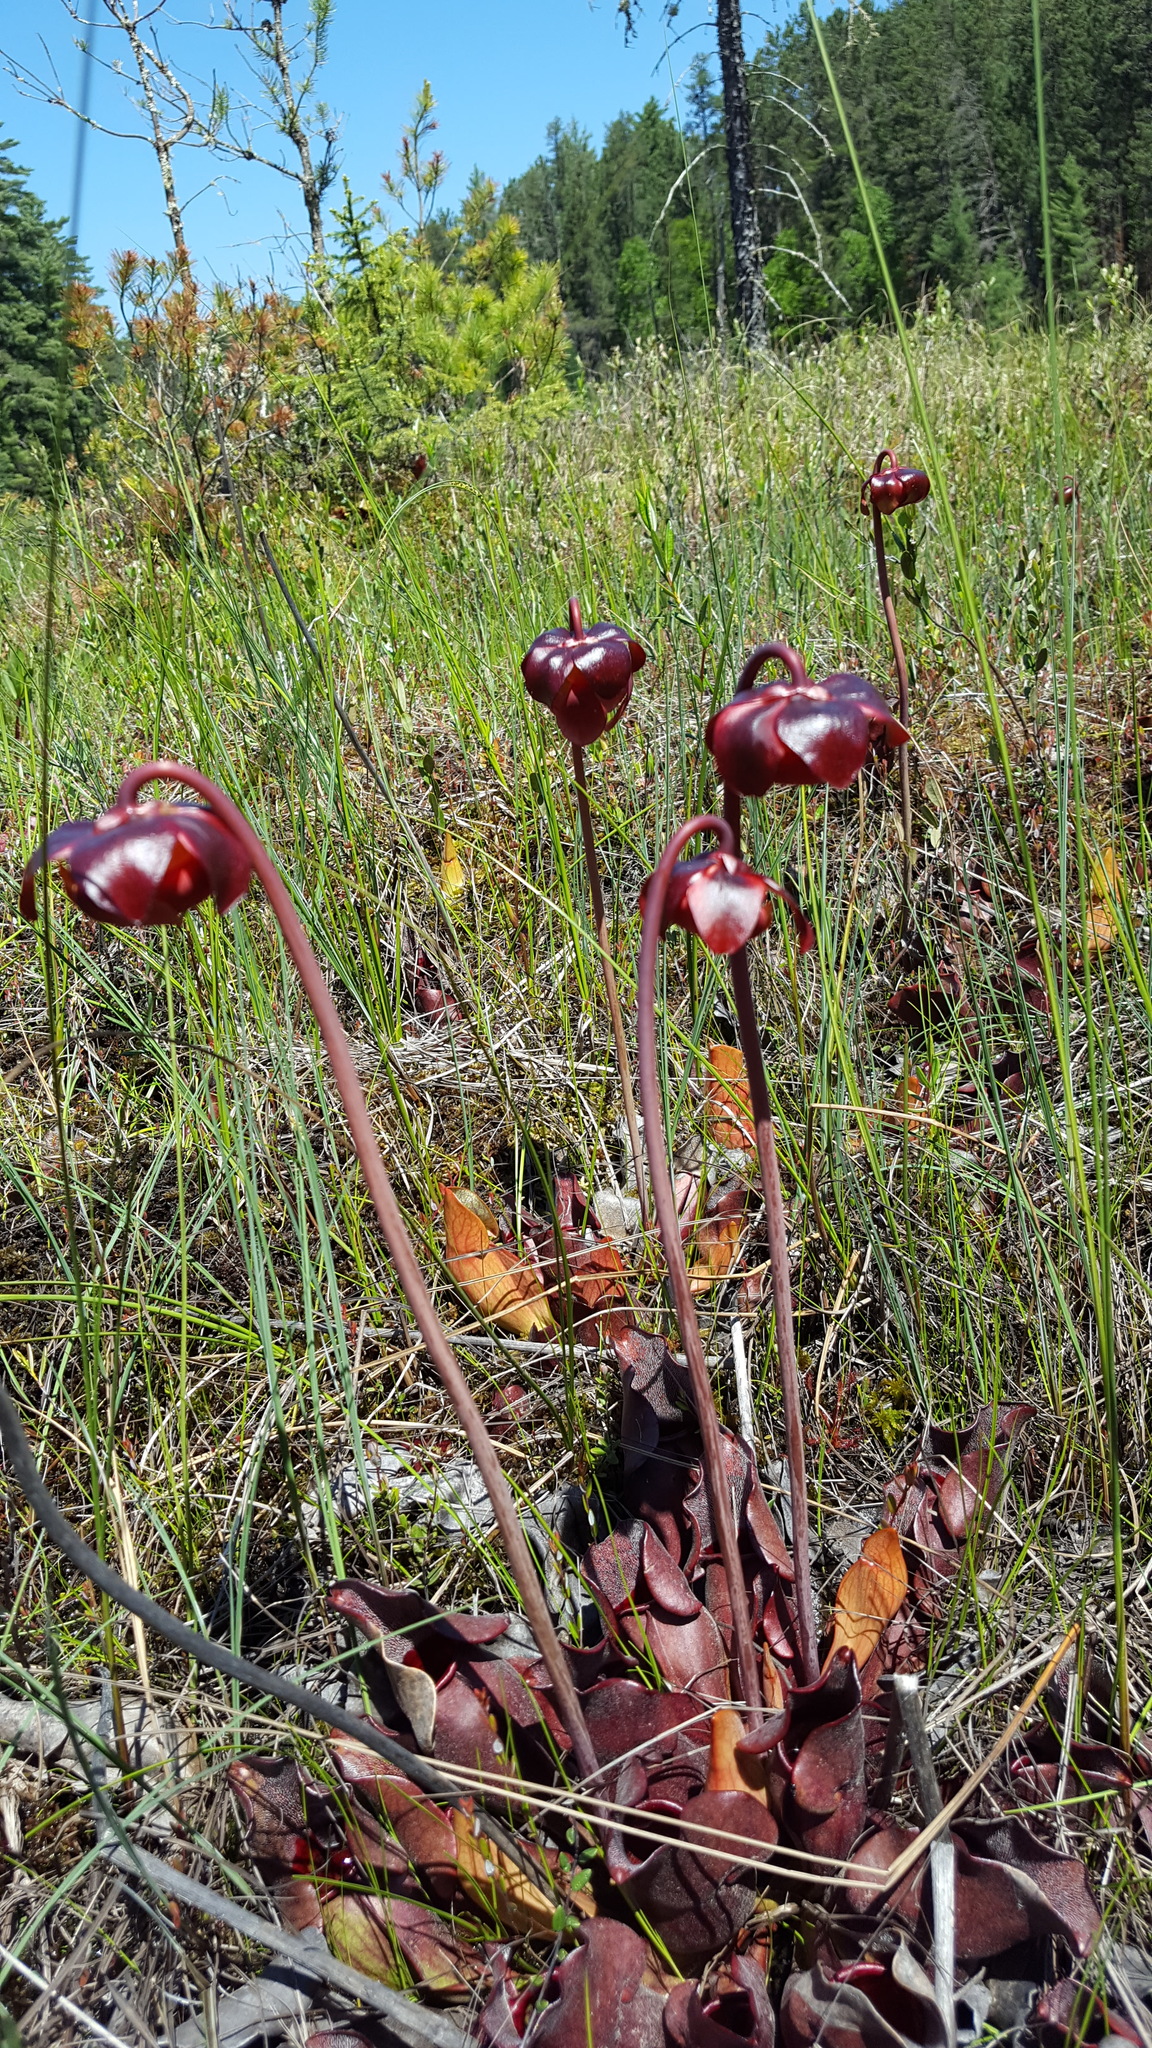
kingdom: Plantae
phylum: Tracheophyta
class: Magnoliopsida
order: Ericales
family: Sarraceniaceae
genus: Sarracenia
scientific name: Sarracenia purpurea
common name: Pitcherplant
